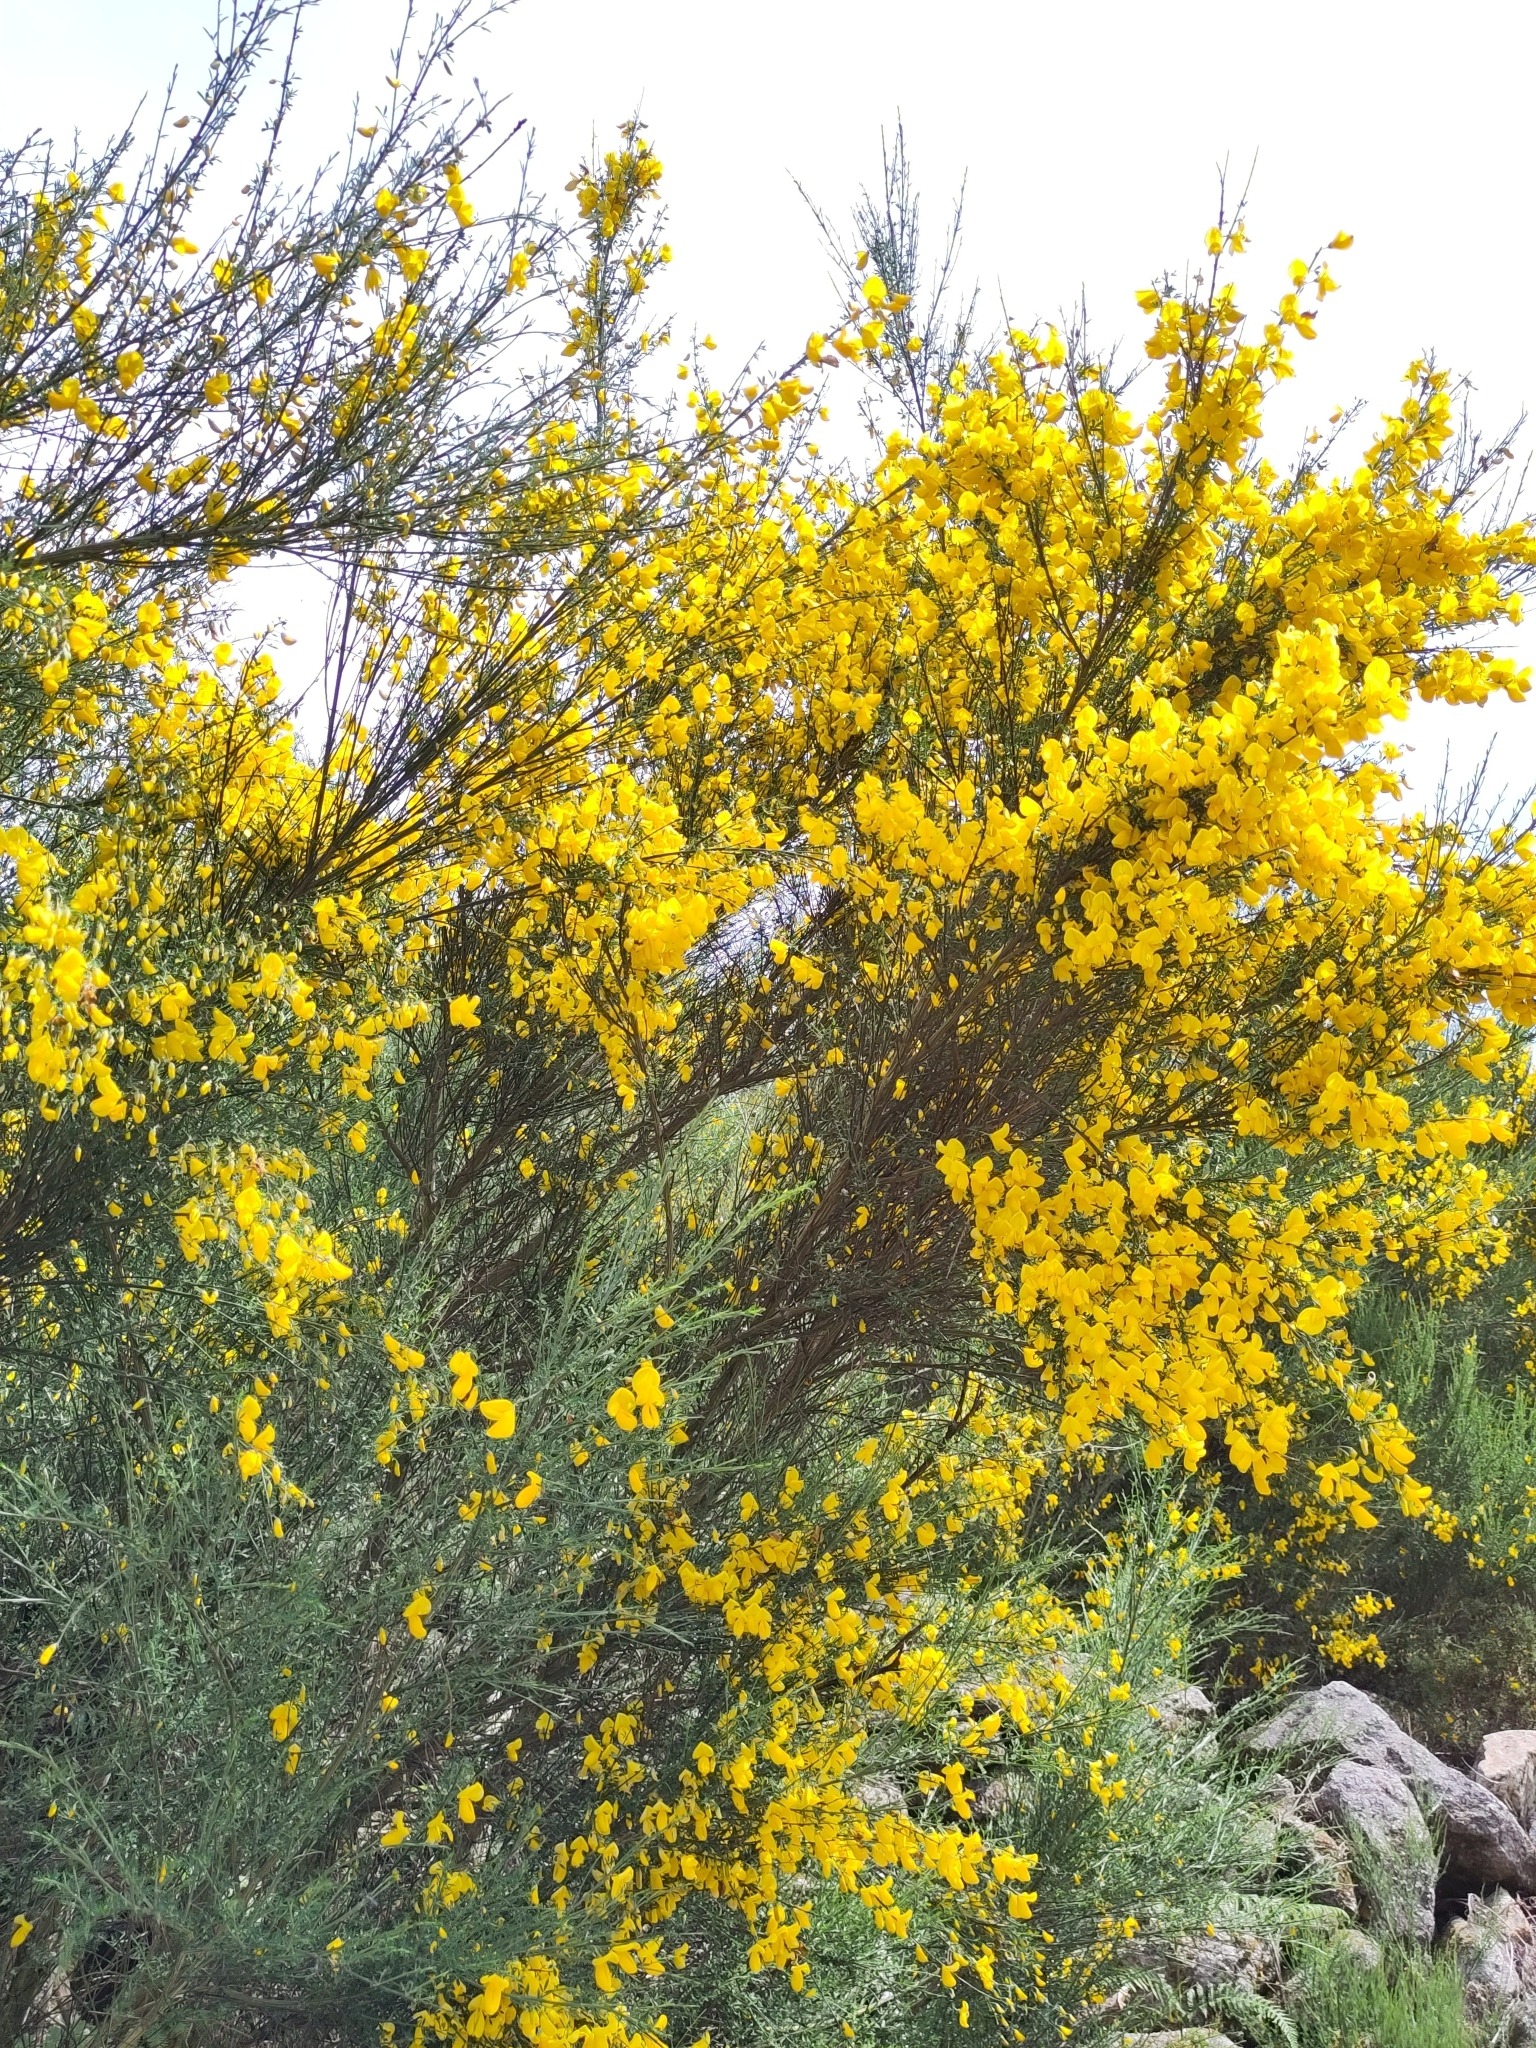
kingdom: Plantae
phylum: Tracheophyta
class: Magnoliopsida
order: Fabales
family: Fabaceae
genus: Cytisus
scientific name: Cytisus scoparius
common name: Scotch broom
